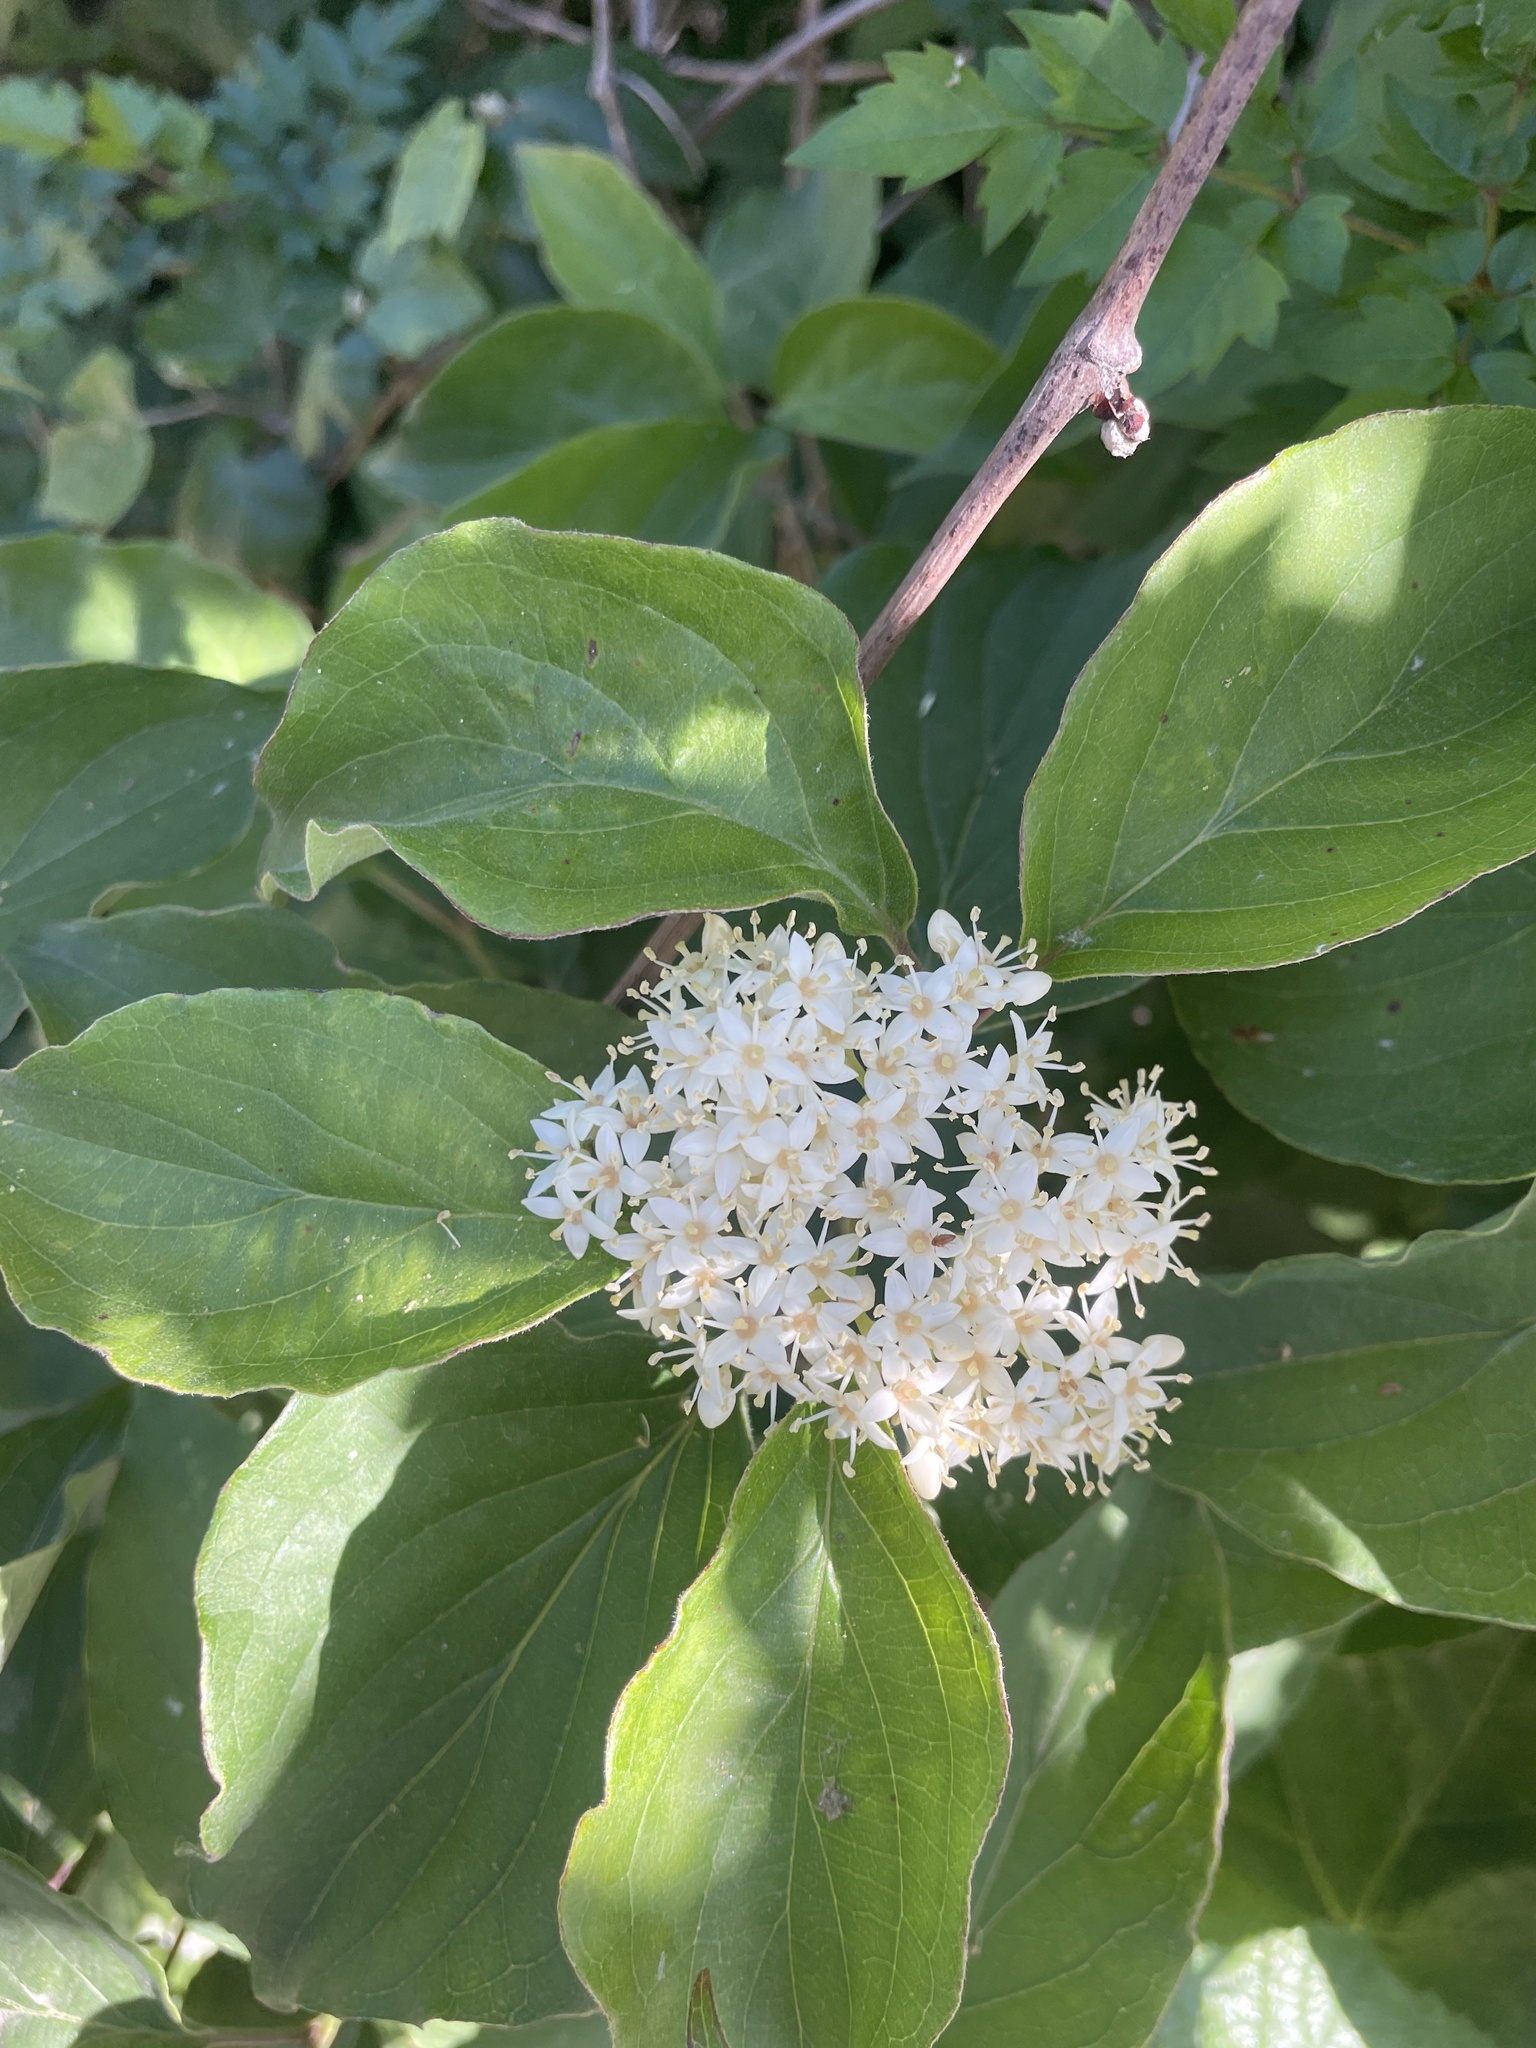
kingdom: Plantae
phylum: Tracheophyta
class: Magnoliopsida
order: Cornales
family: Cornaceae
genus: Cornus
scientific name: Cornus drummondii
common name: Rough-leaf dogwood
